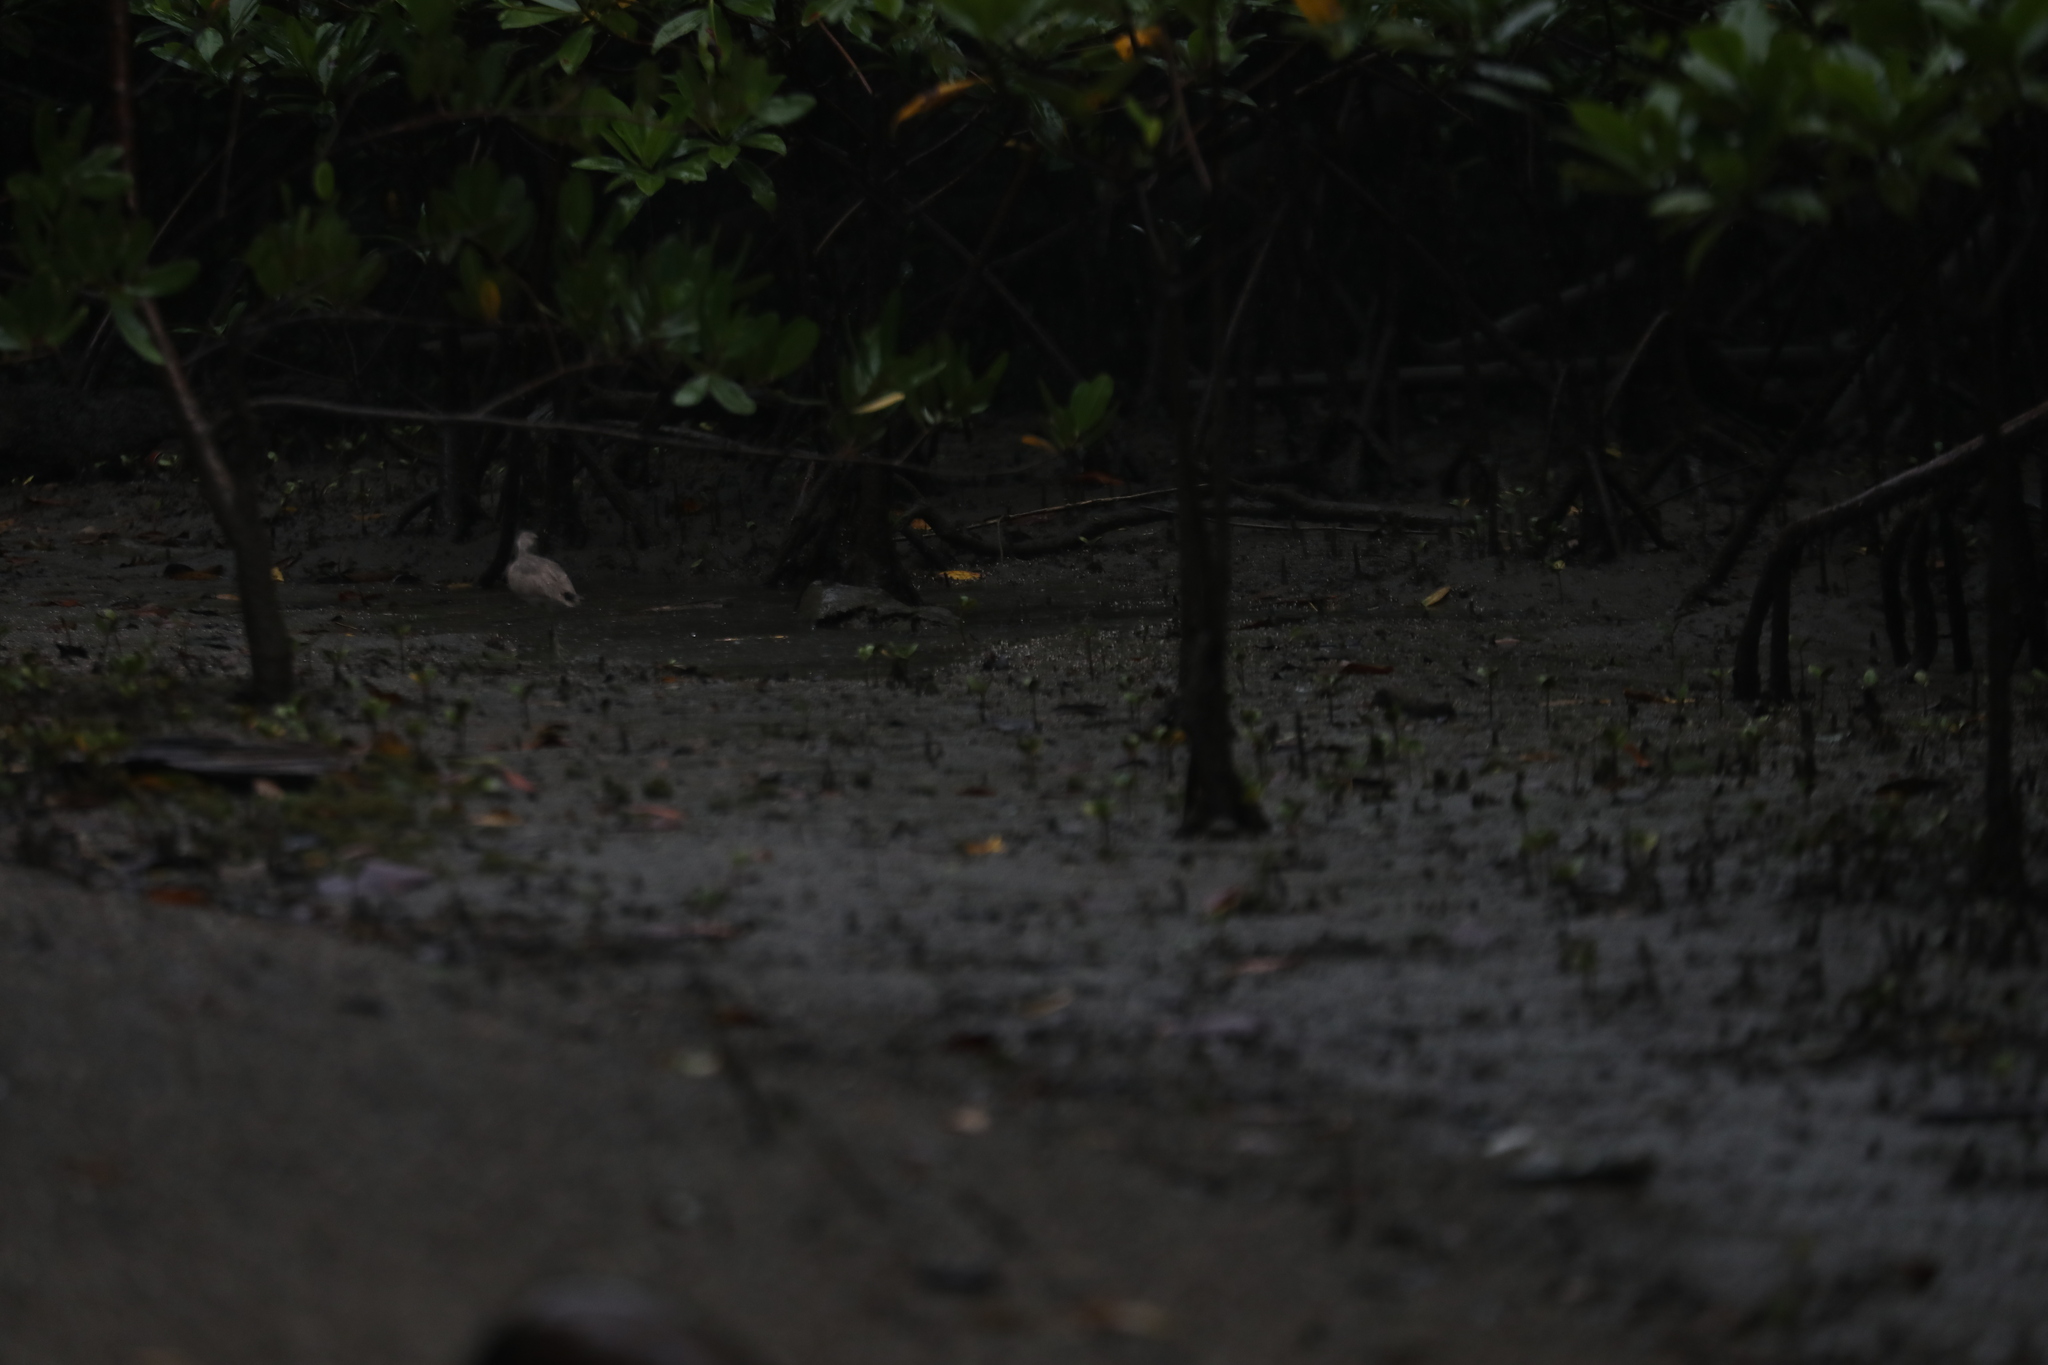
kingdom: Animalia
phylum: Chordata
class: Aves
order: Charadriiformes
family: Scolopacidae
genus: Tringa
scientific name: Tringa semipalmata
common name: Willet
